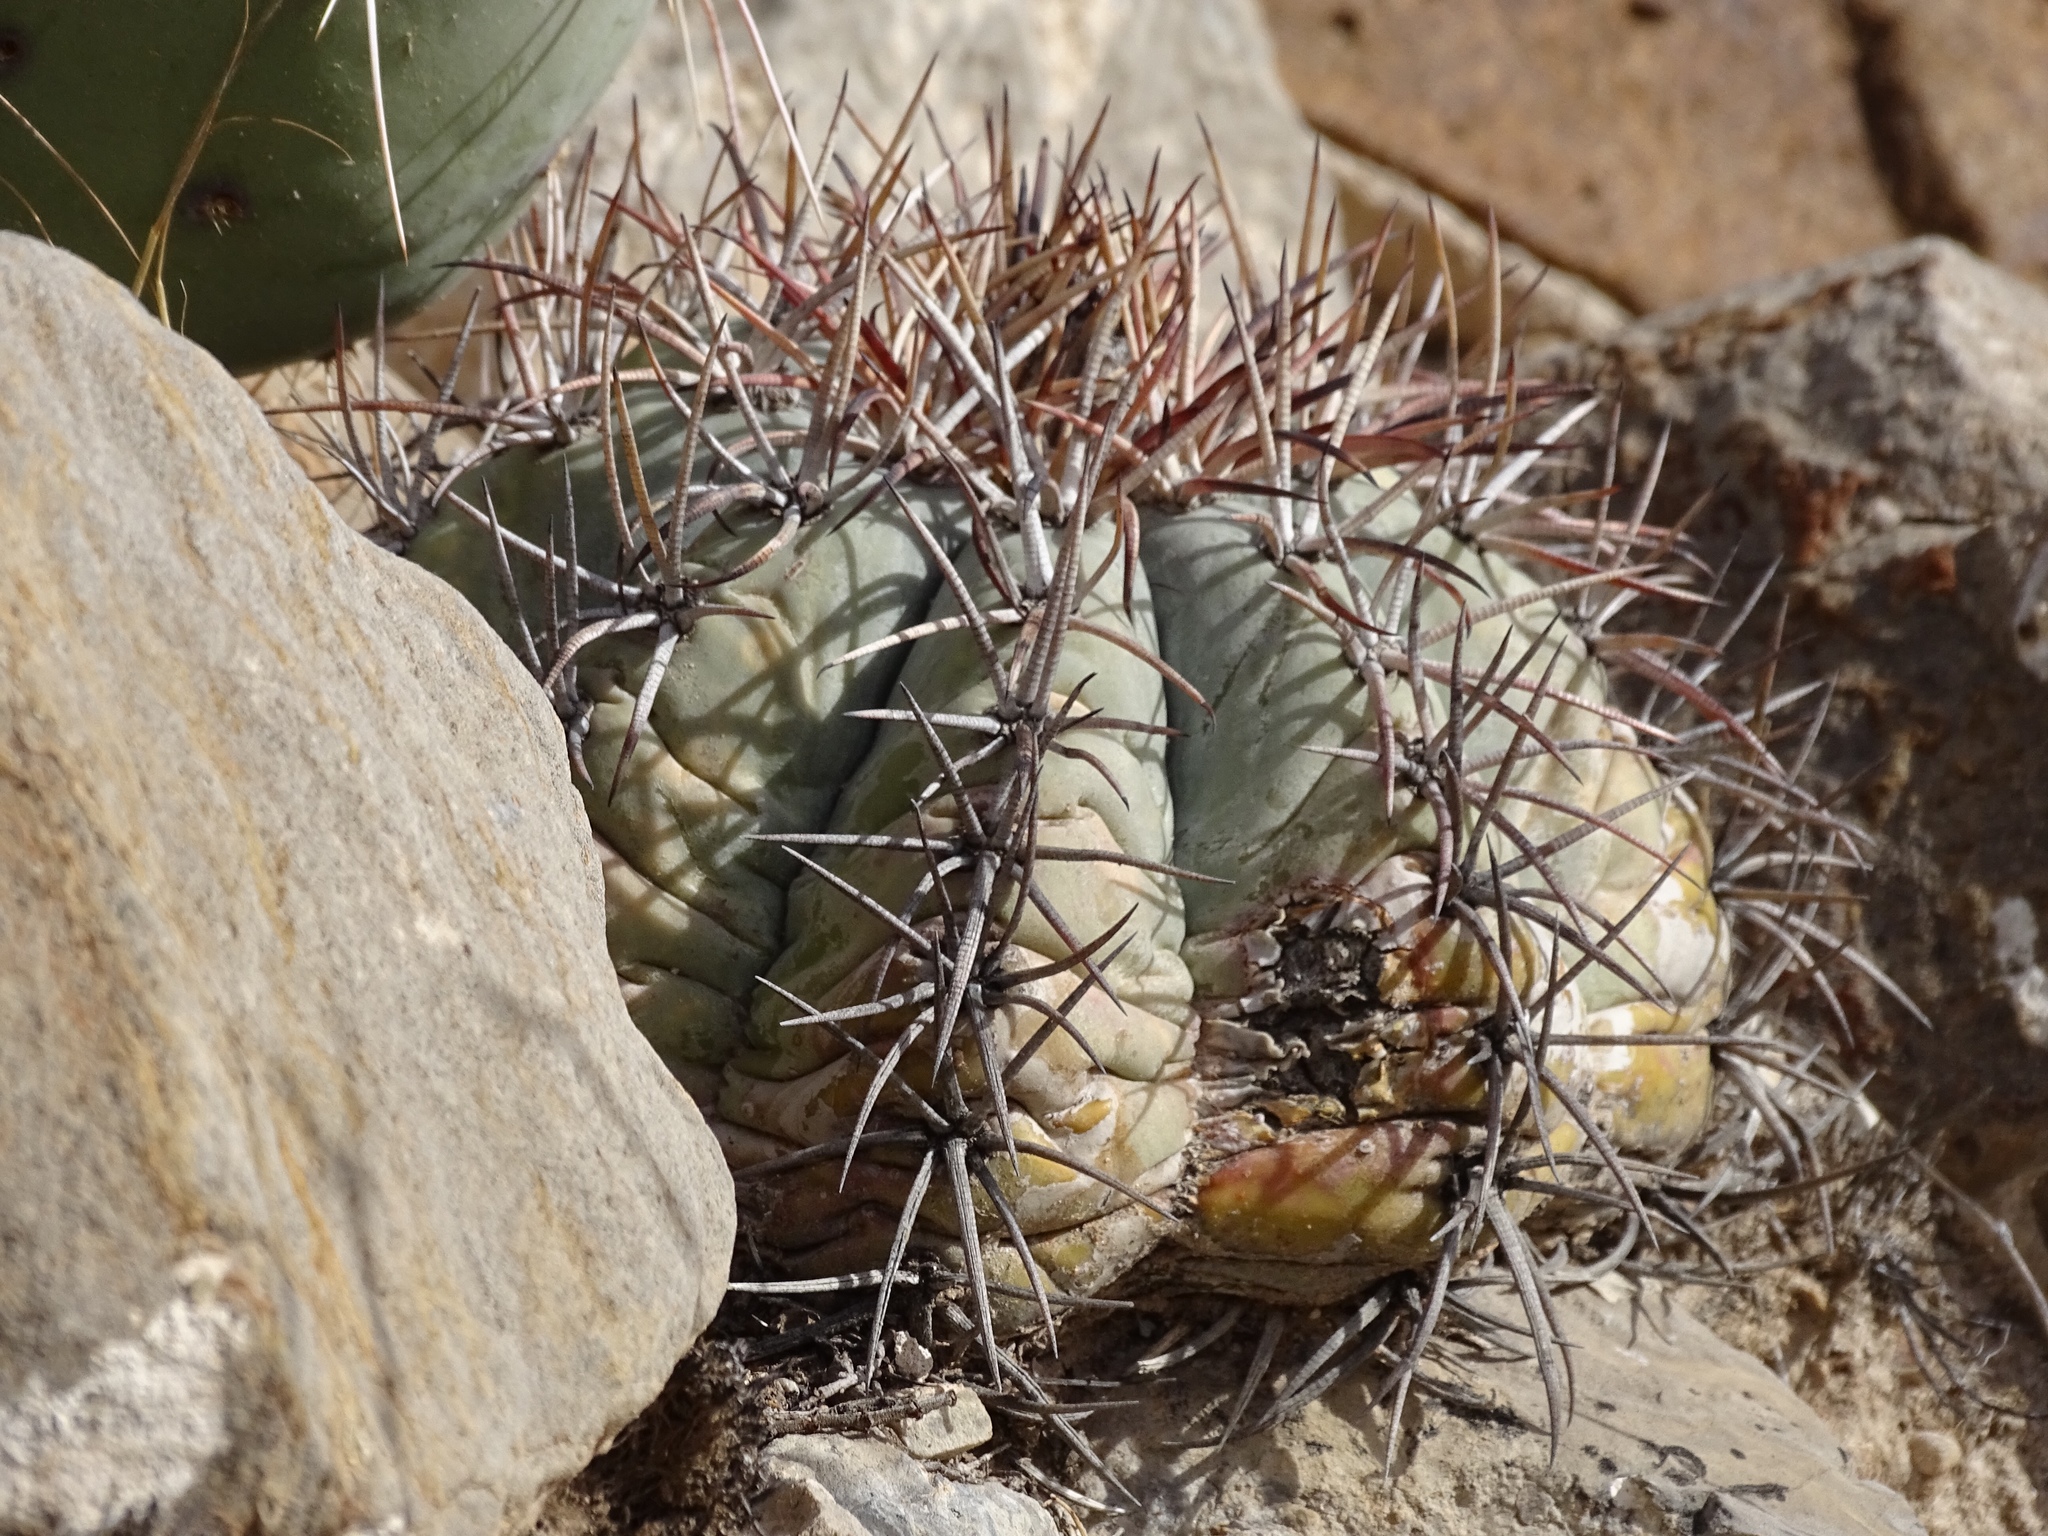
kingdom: Plantae
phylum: Tracheophyta
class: Magnoliopsida
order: Caryophyllales
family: Cactaceae
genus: Echinocactus
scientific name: Echinocactus horizonthalonius
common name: Devilshead
